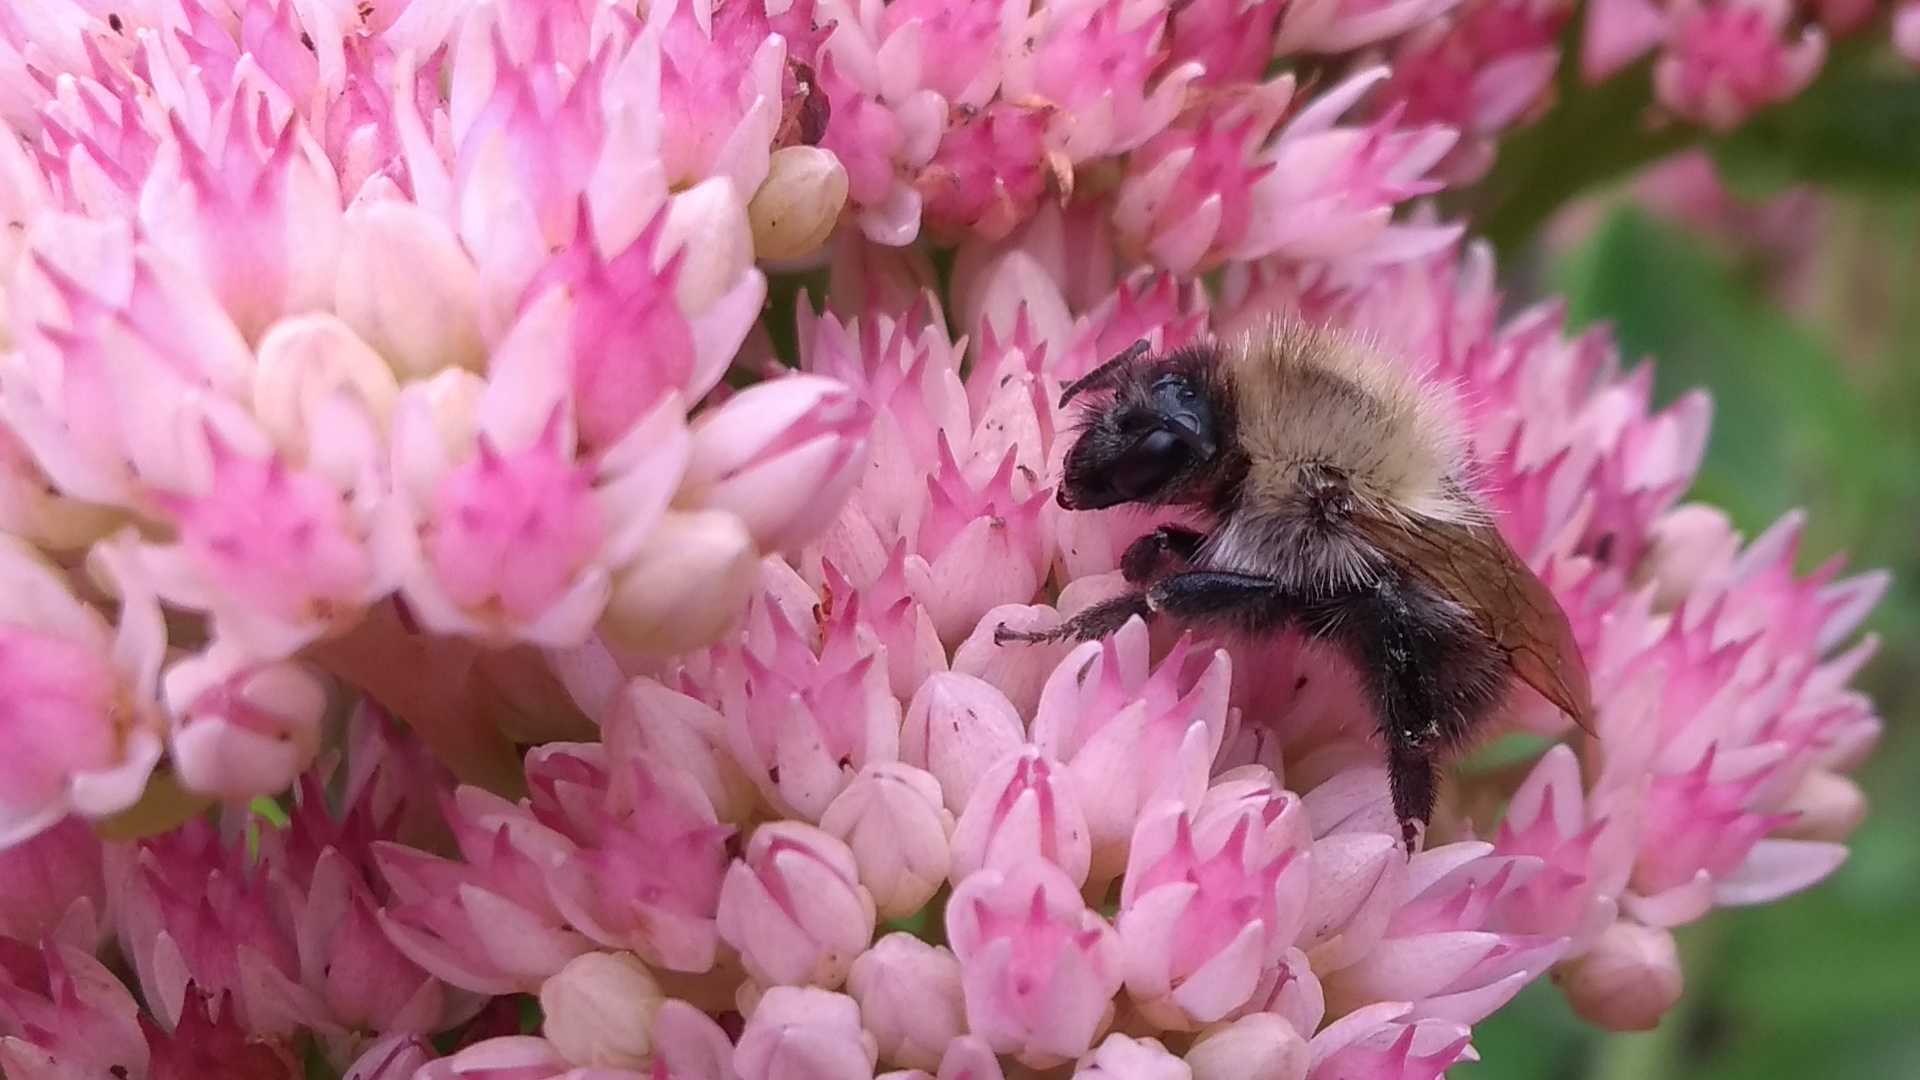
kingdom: Animalia
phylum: Arthropoda
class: Insecta
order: Hymenoptera
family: Apidae
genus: Bombus
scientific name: Bombus pascuorum
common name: Common carder bee
